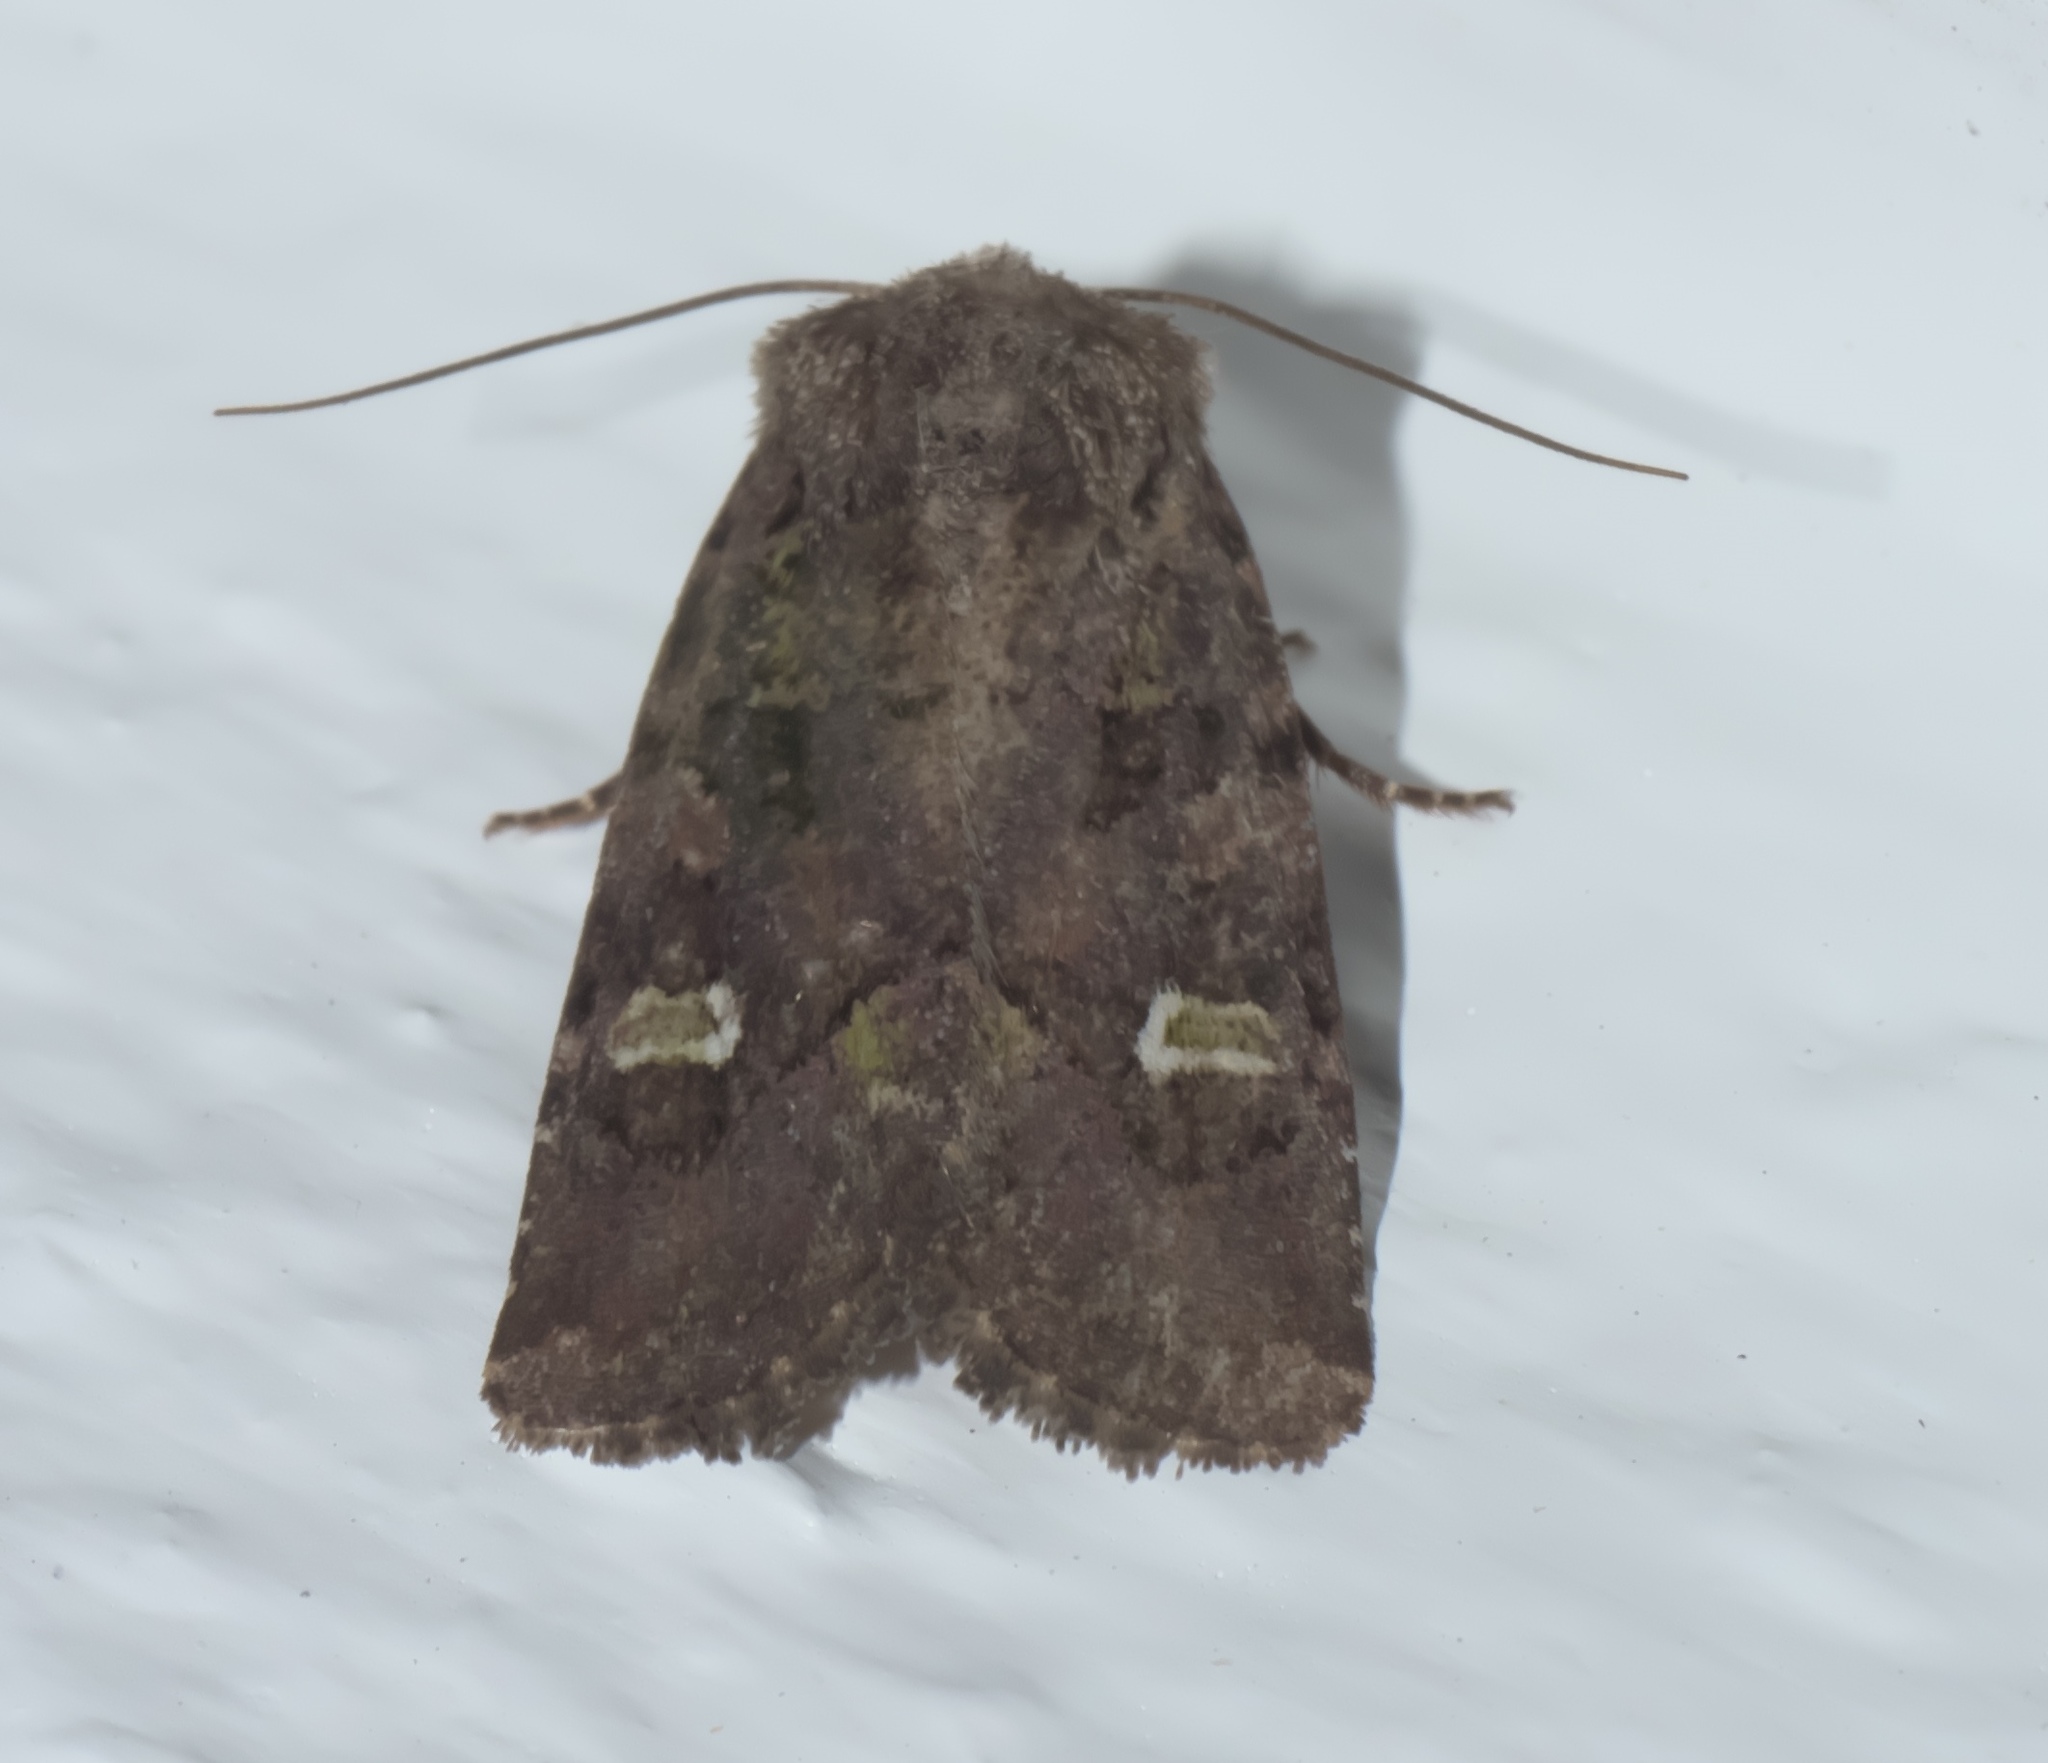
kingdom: Animalia
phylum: Arthropoda
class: Insecta
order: Lepidoptera
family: Noctuidae
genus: Lacinipolia
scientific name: Lacinipolia renigera
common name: Kidney-spotted minor
